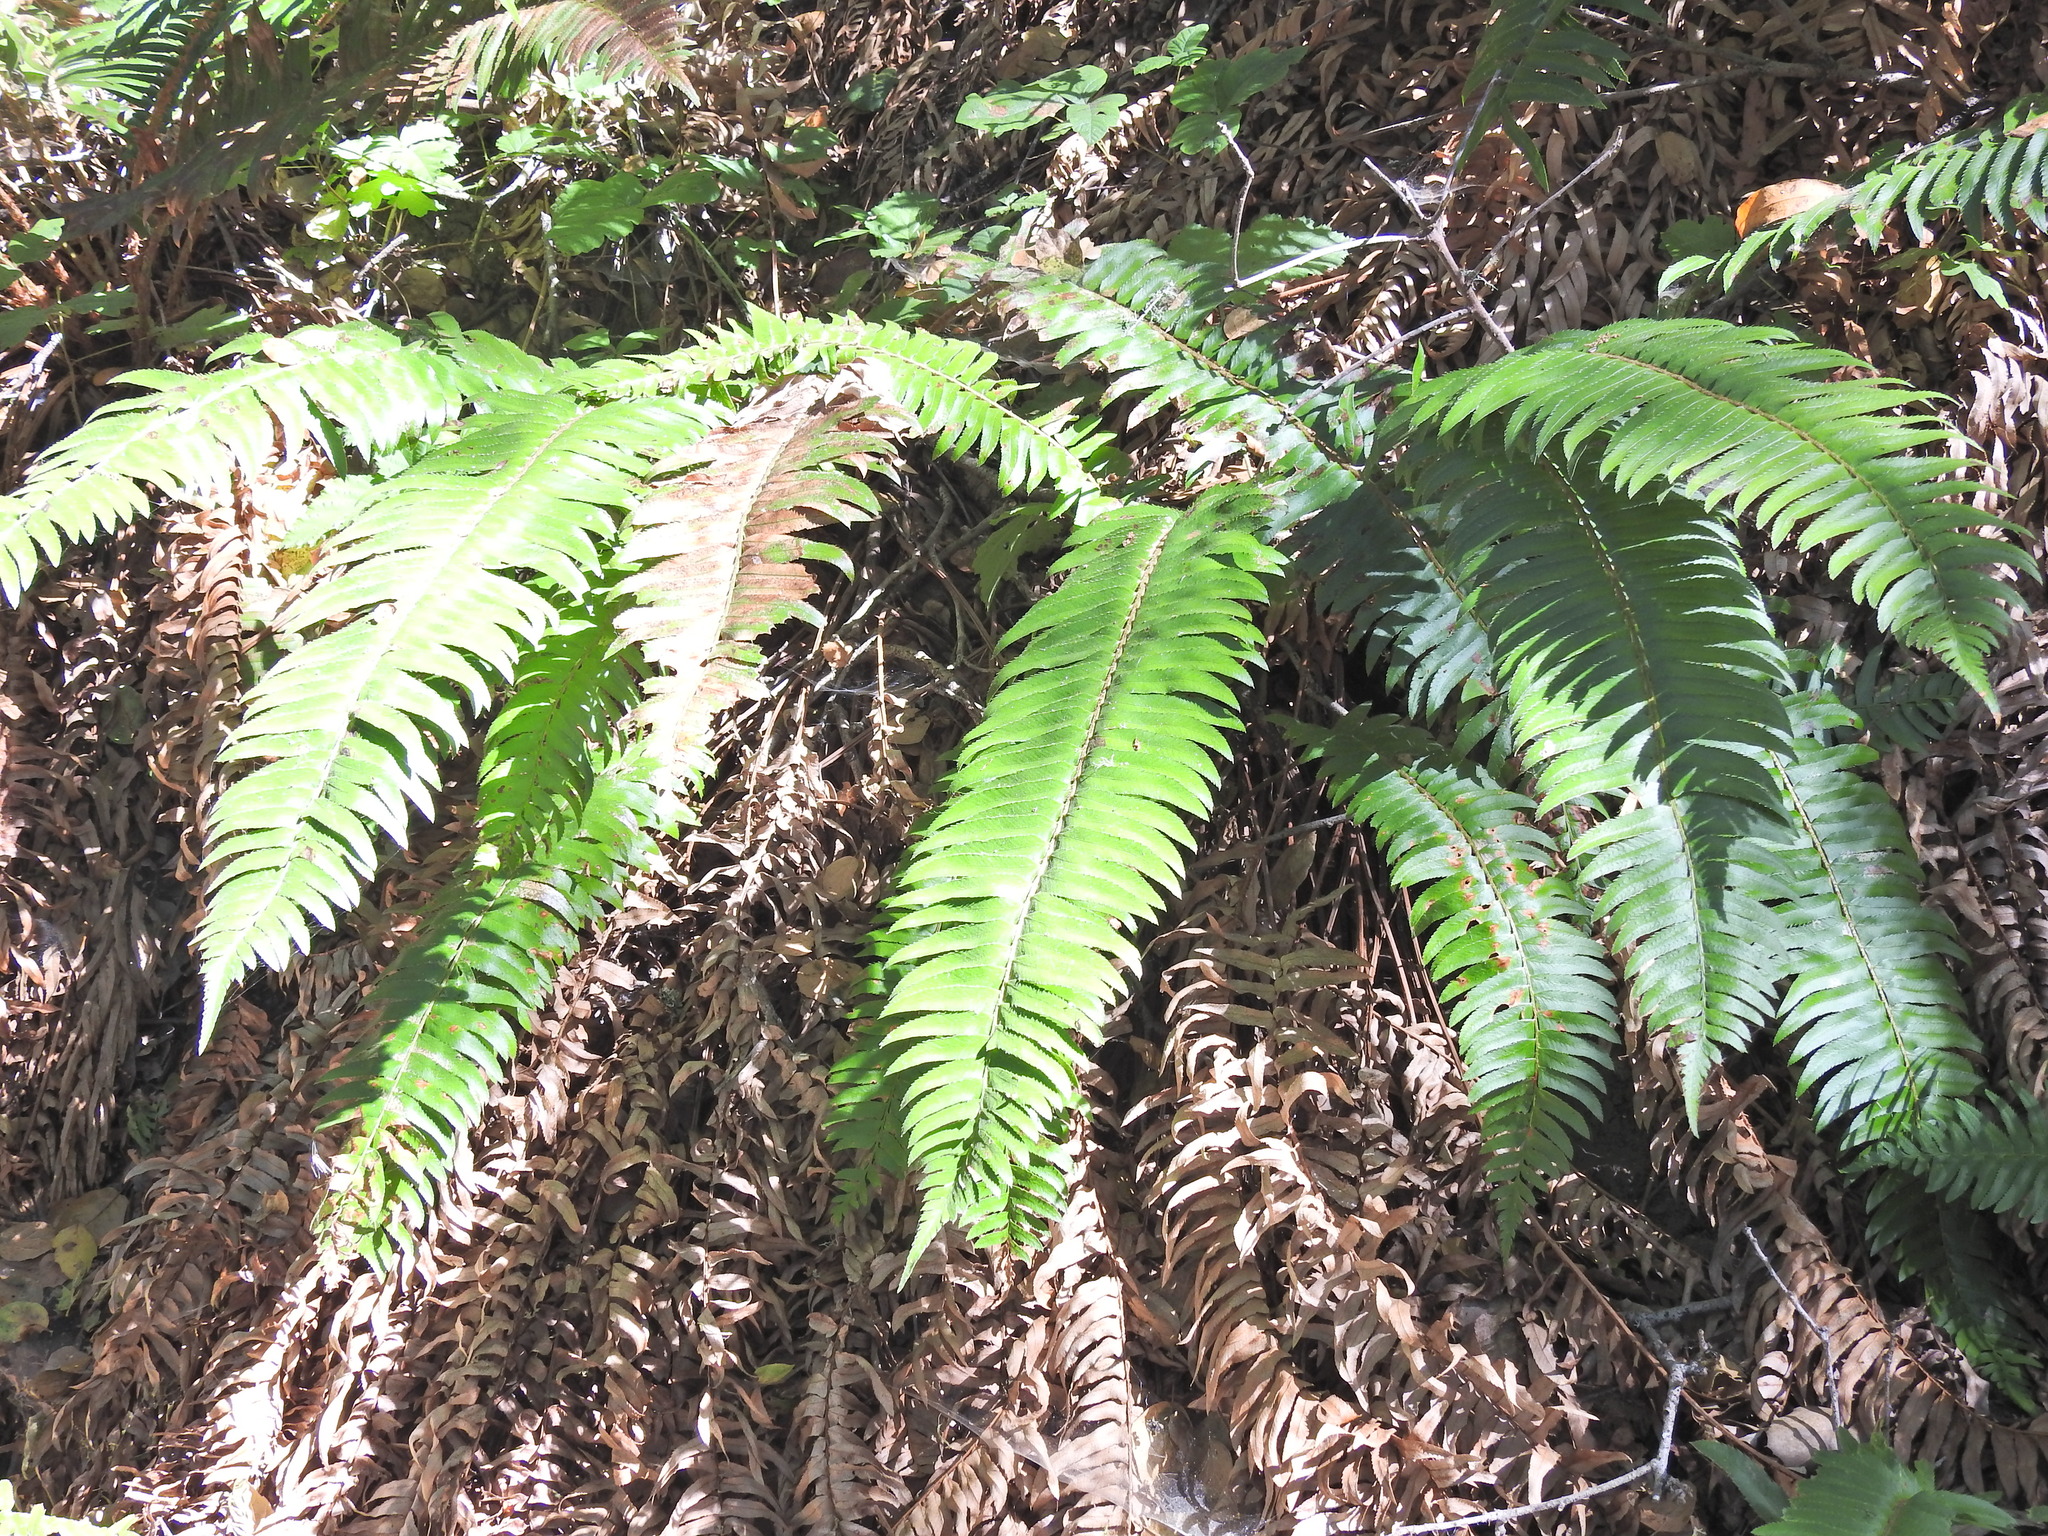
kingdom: Plantae
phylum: Tracheophyta
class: Polypodiopsida
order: Polypodiales
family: Dryopteridaceae
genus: Polystichum
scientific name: Polystichum munitum
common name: Western sword-fern
